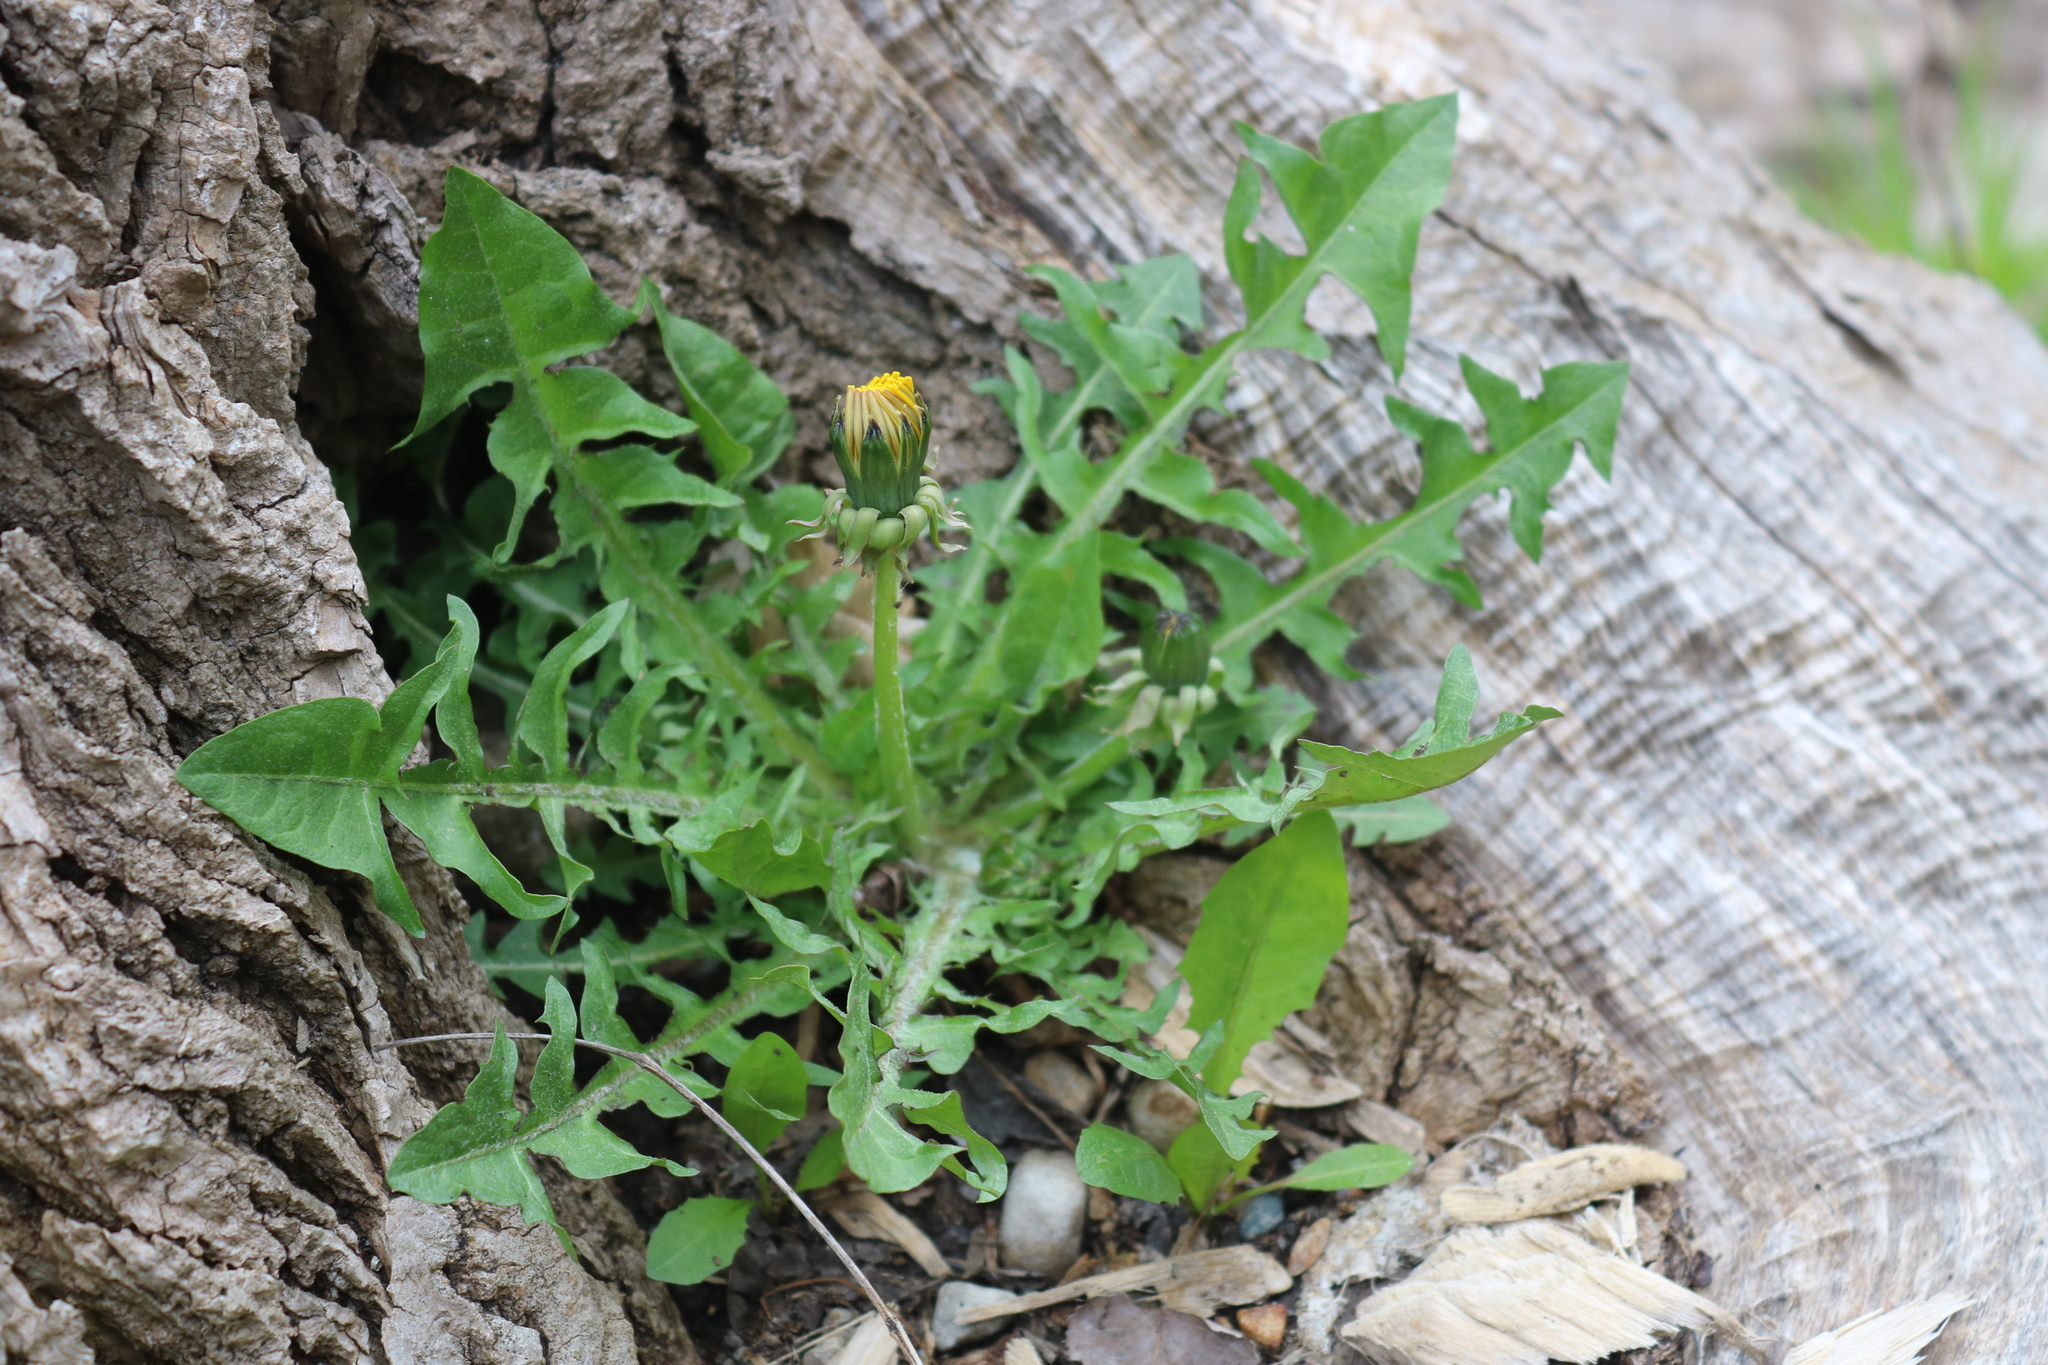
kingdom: Plantae
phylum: Tracheophyta
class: Magnoliopsida
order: Asterales
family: Asteraceae
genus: Taraxacum
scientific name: Taraxacum officinale
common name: Common dandelion
